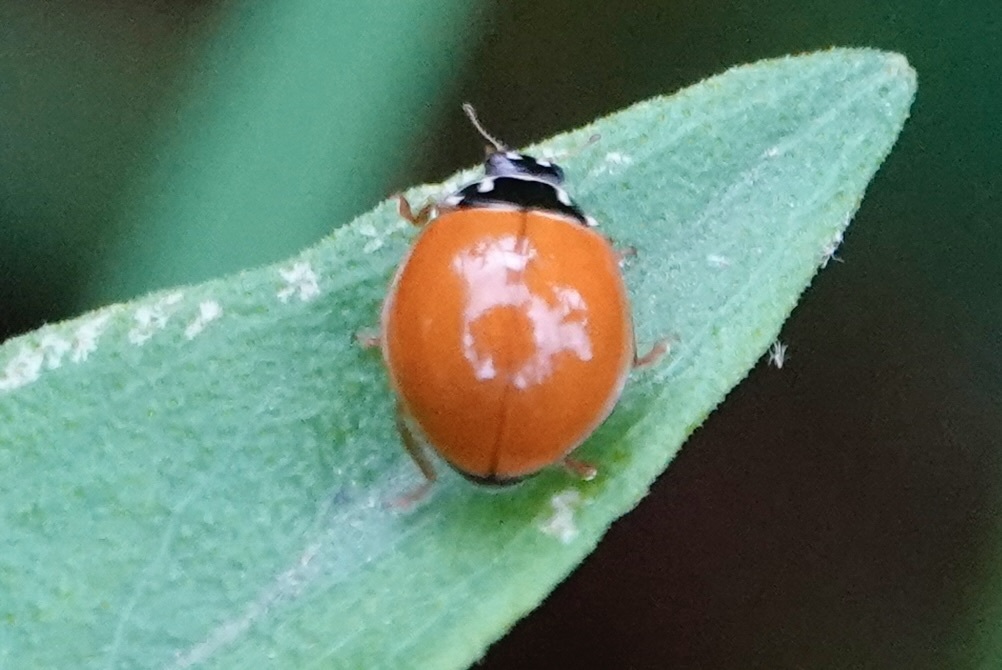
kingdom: Animalia
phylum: Arthropoda
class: Insecta
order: Coleoptera
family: Coccinellidae
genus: Cycloneda
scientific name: Cycloneda munda
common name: Polished lady beetle
